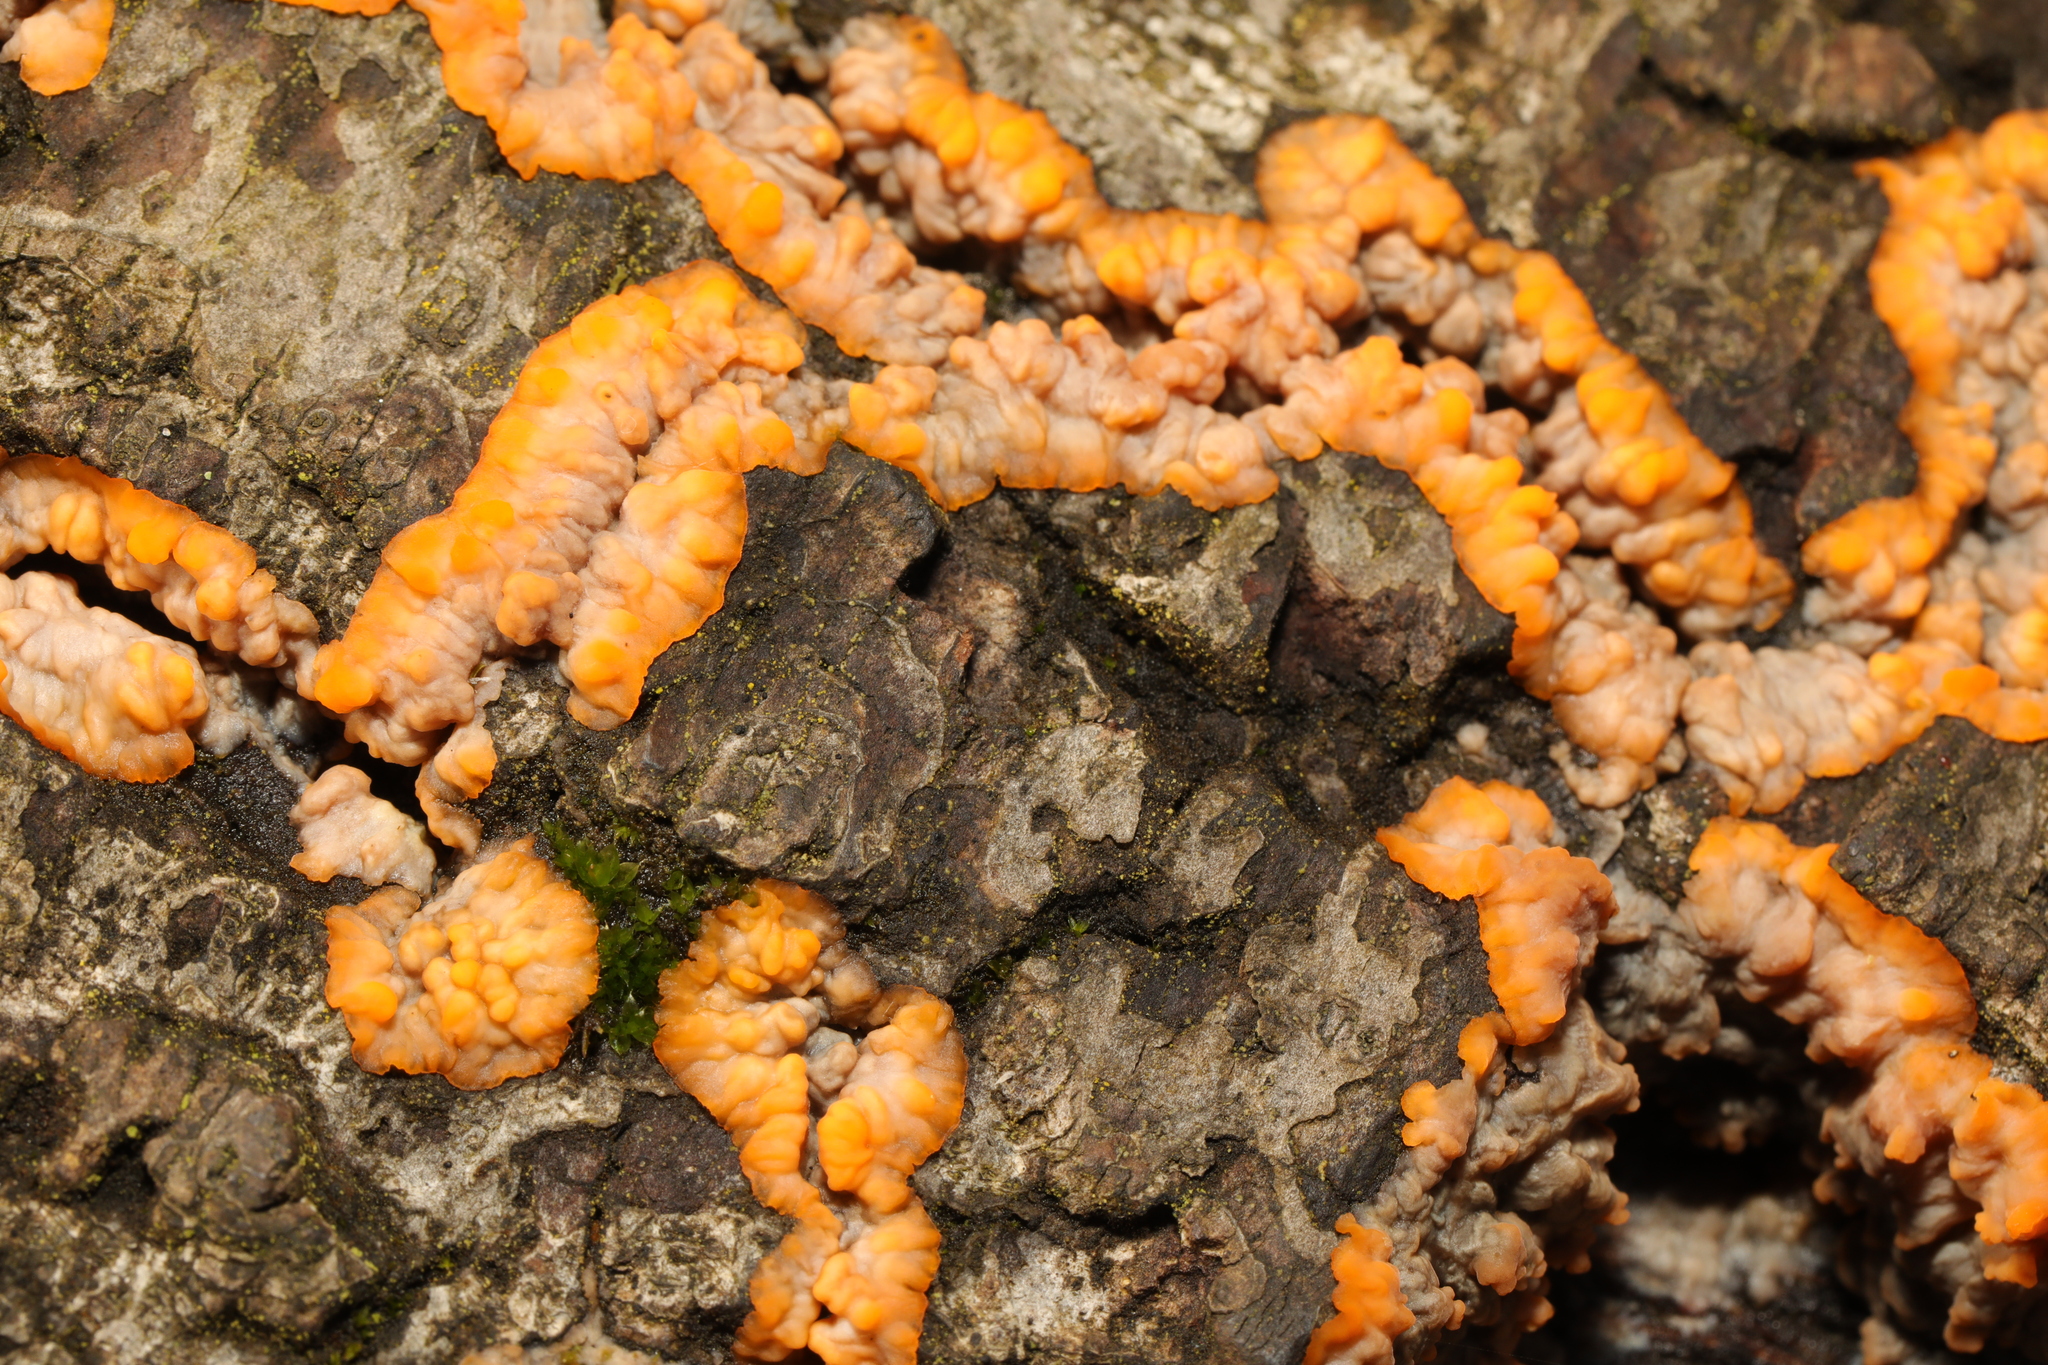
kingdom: Fungi
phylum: Basidiomycota
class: Agaricomycetes
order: Polyporales
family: Meruliaceae
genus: Phlebia
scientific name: Phlebia radiata
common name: Wrinkled crust
